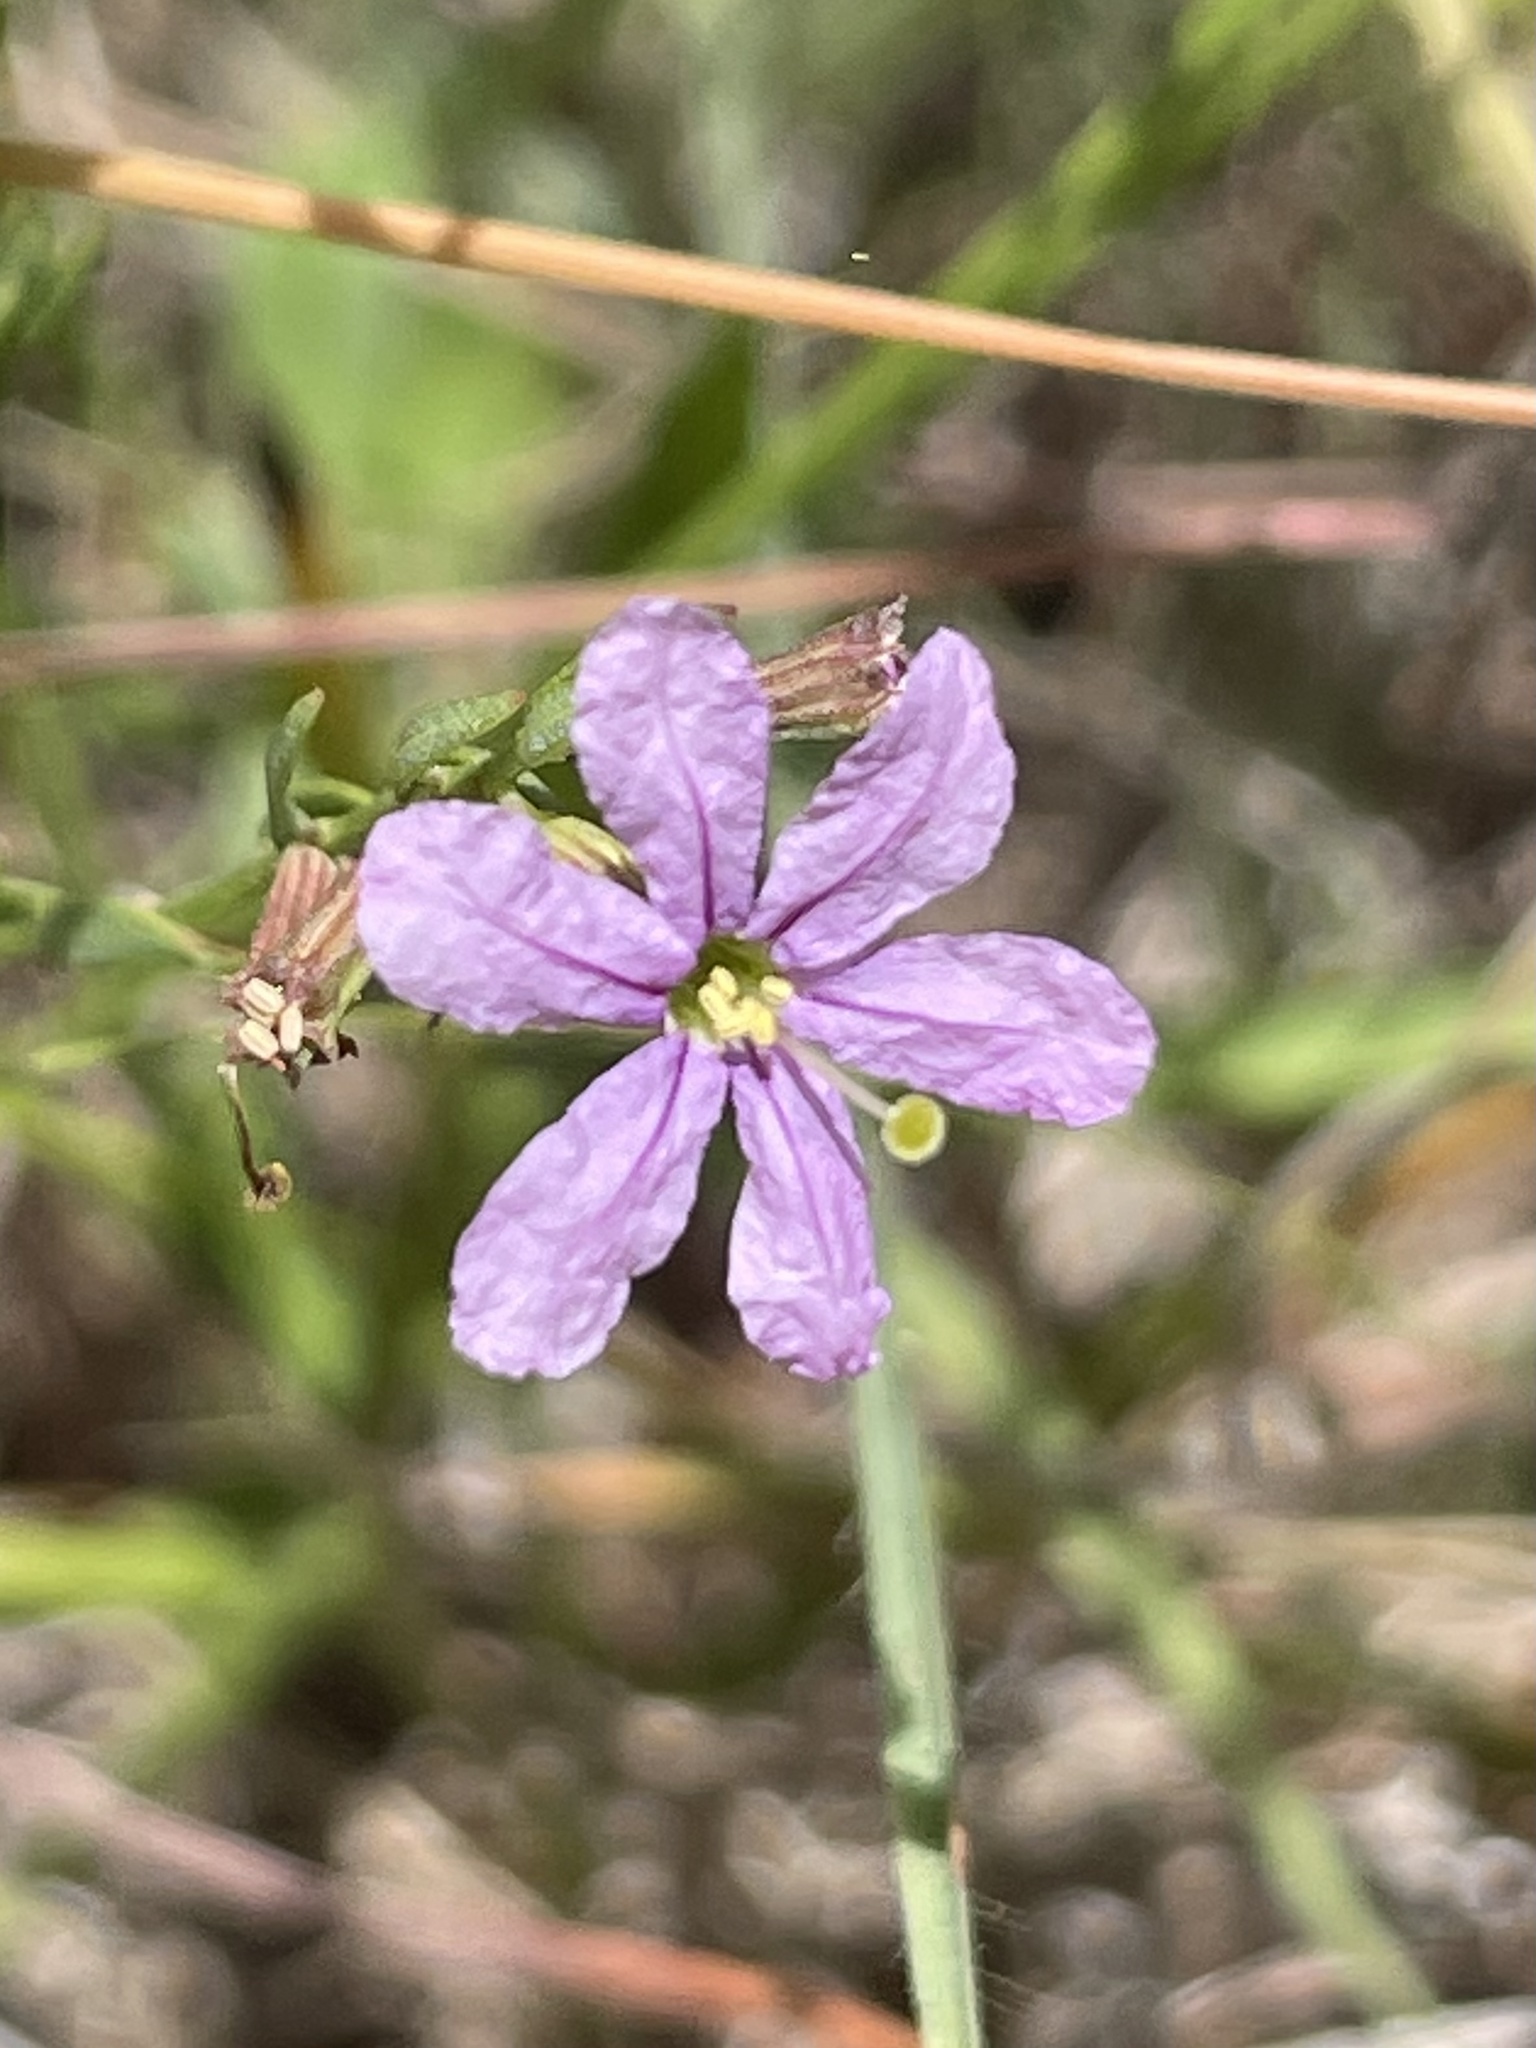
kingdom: Plantae
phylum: Tracheophyta
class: Magnoliopsida
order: Myrtales
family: Lythraceae
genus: Lythrum
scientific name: Lythrum alatum
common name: Winged loosestrife
